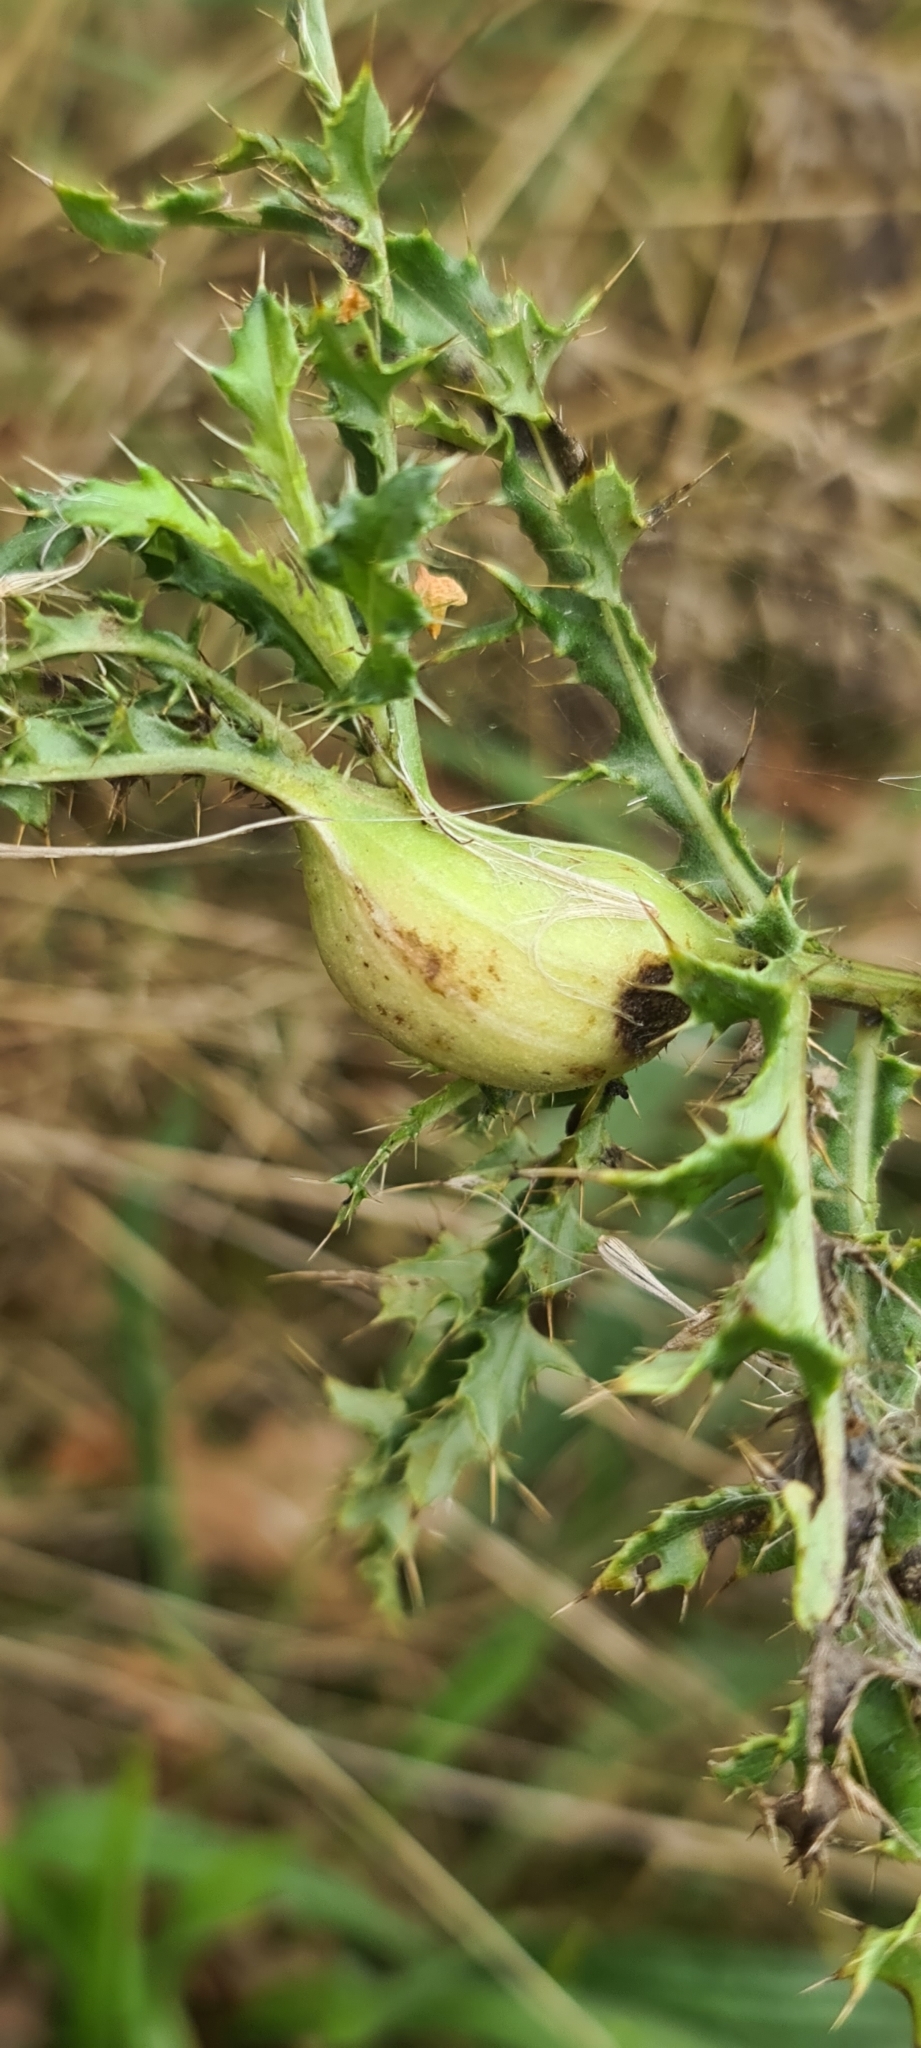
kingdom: Animalia
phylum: Arthropoda
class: Insecta
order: Diptera
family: Tephritidae
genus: Urophora
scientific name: Urophora cardui
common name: Fruit fly
